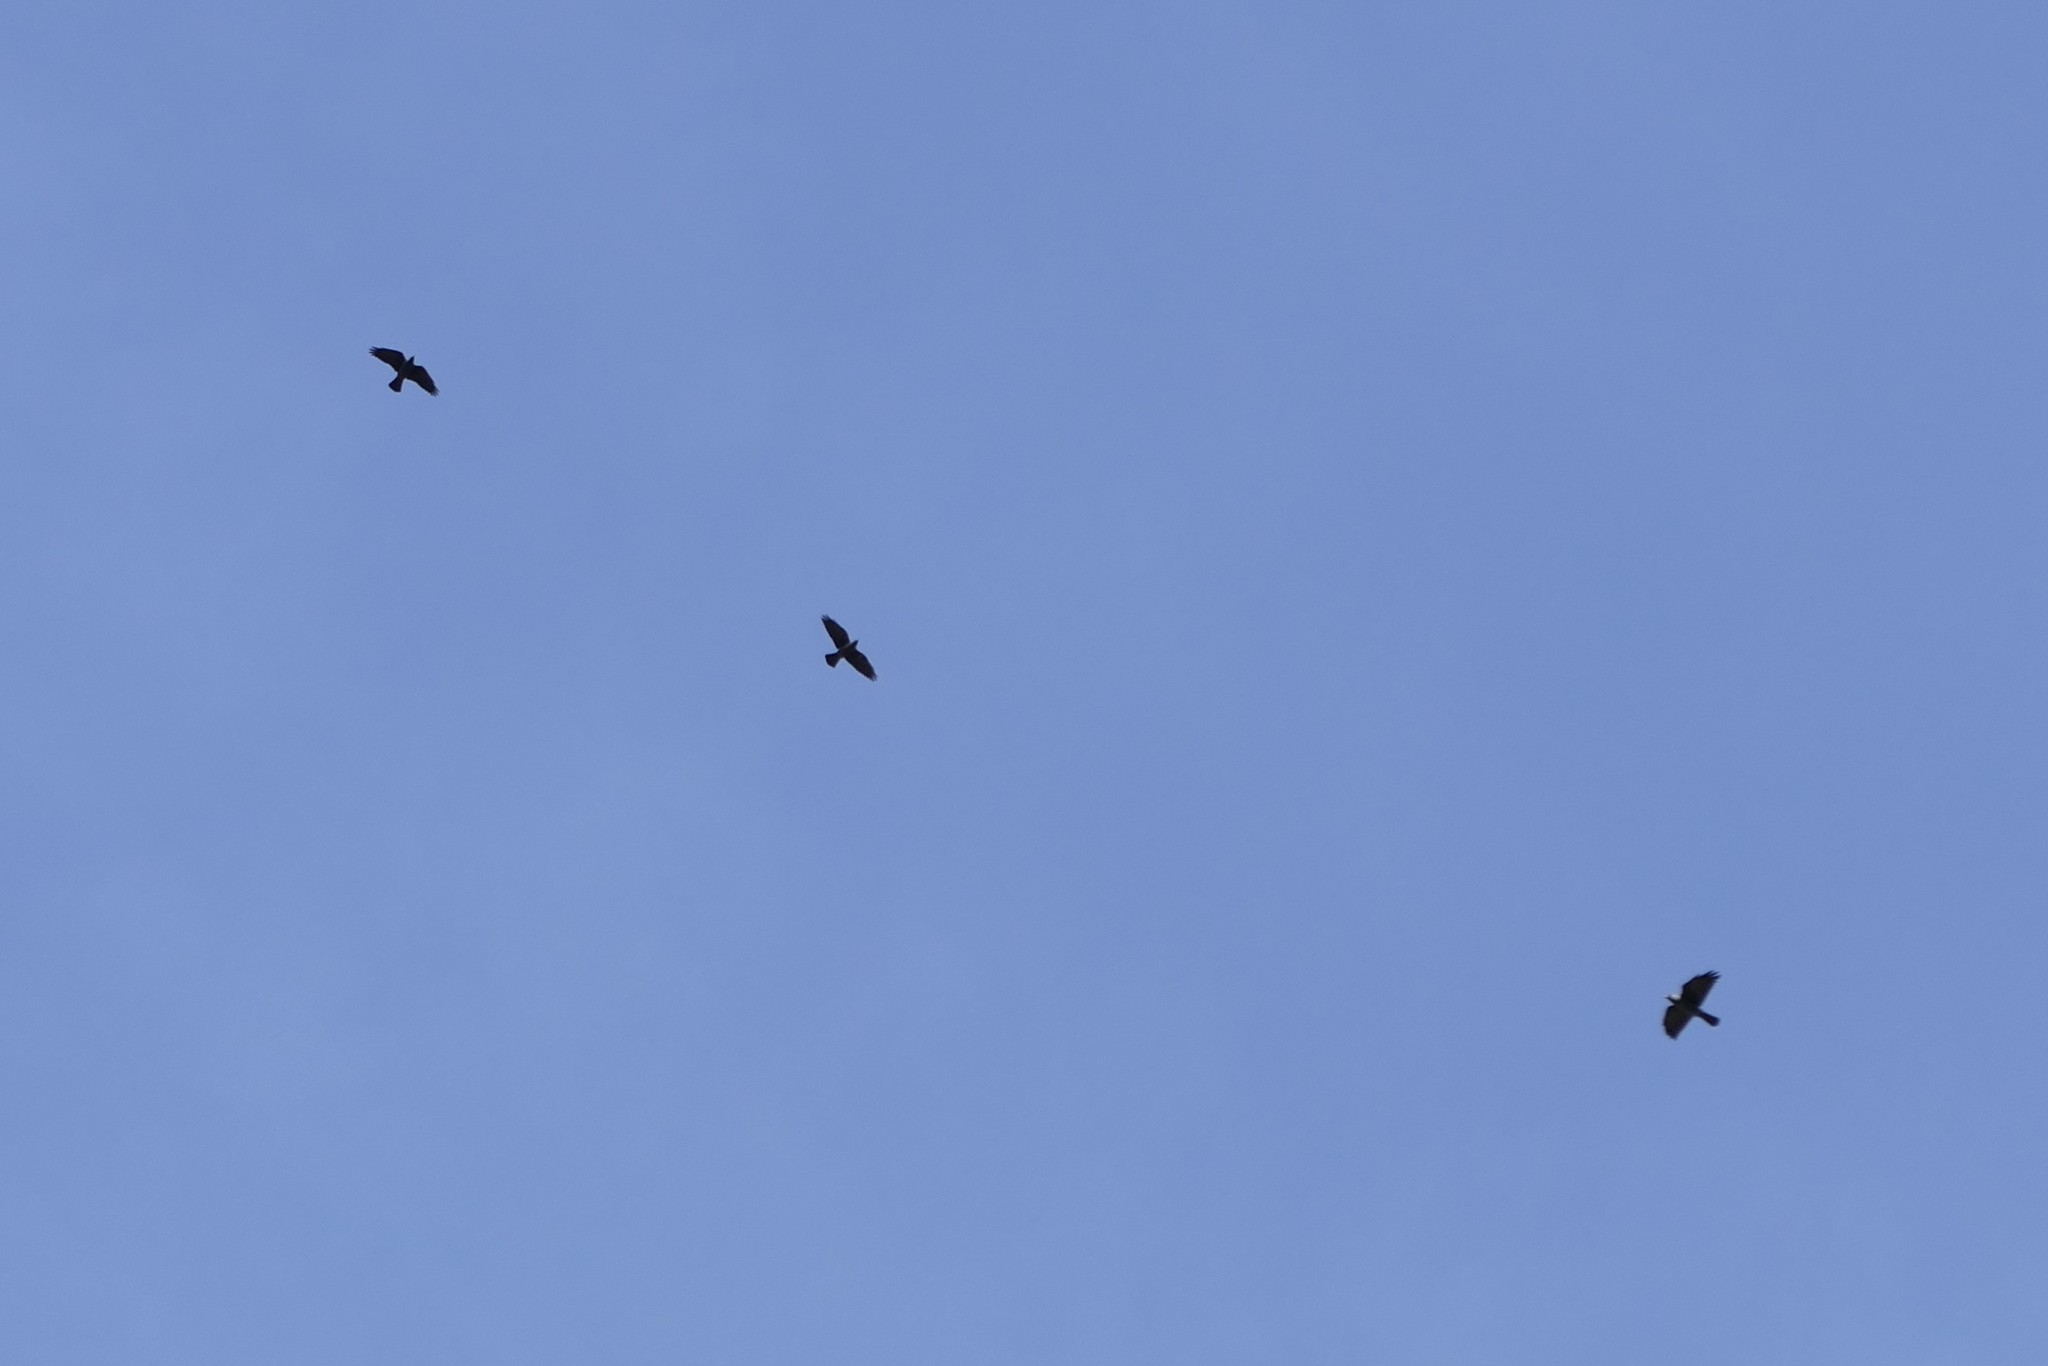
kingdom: Animalia
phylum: Chordata
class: Aves
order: Passeriformes
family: Corvidae
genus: Coloeus
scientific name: Coloeus monedula
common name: Western jackdaw
